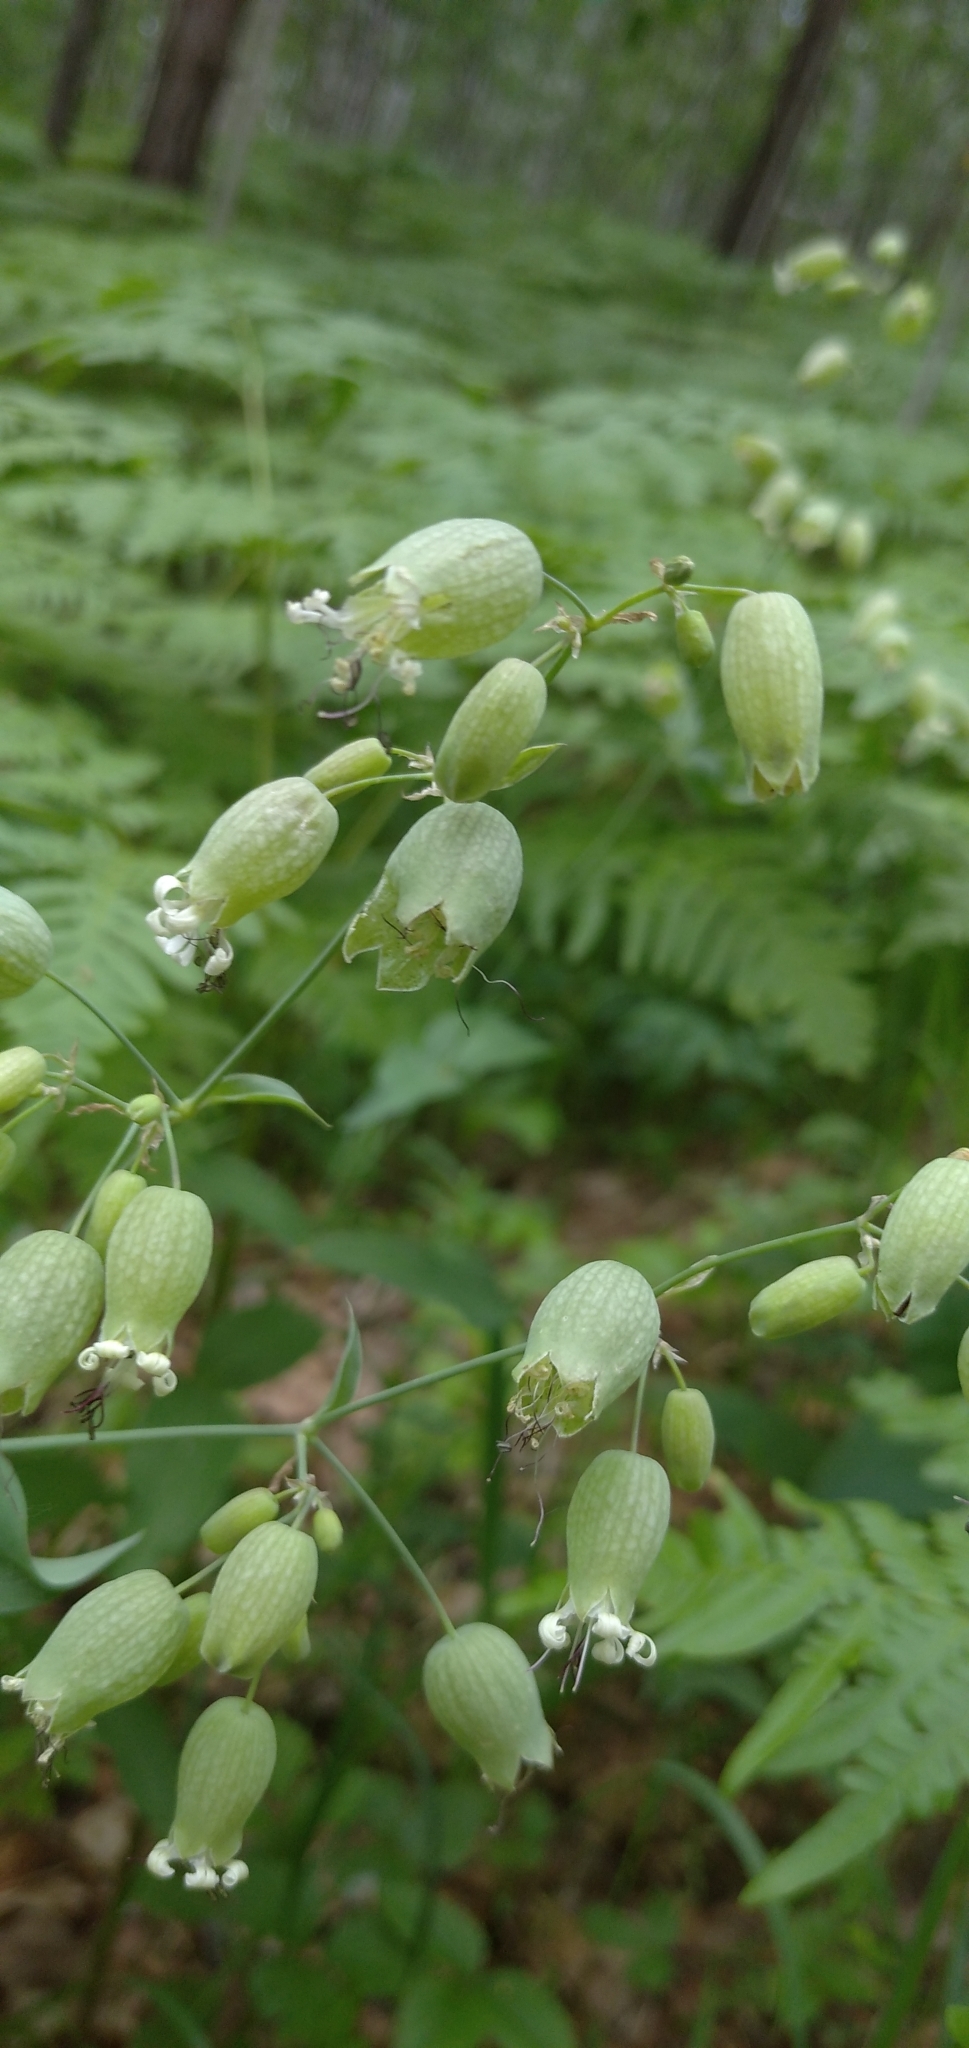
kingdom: Plantae
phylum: Tracheophyta
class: Magnoliopsida
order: Caryophyllales
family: Caryophyllaceae
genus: Silene
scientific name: Silene vulgaris
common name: Bladder campion
